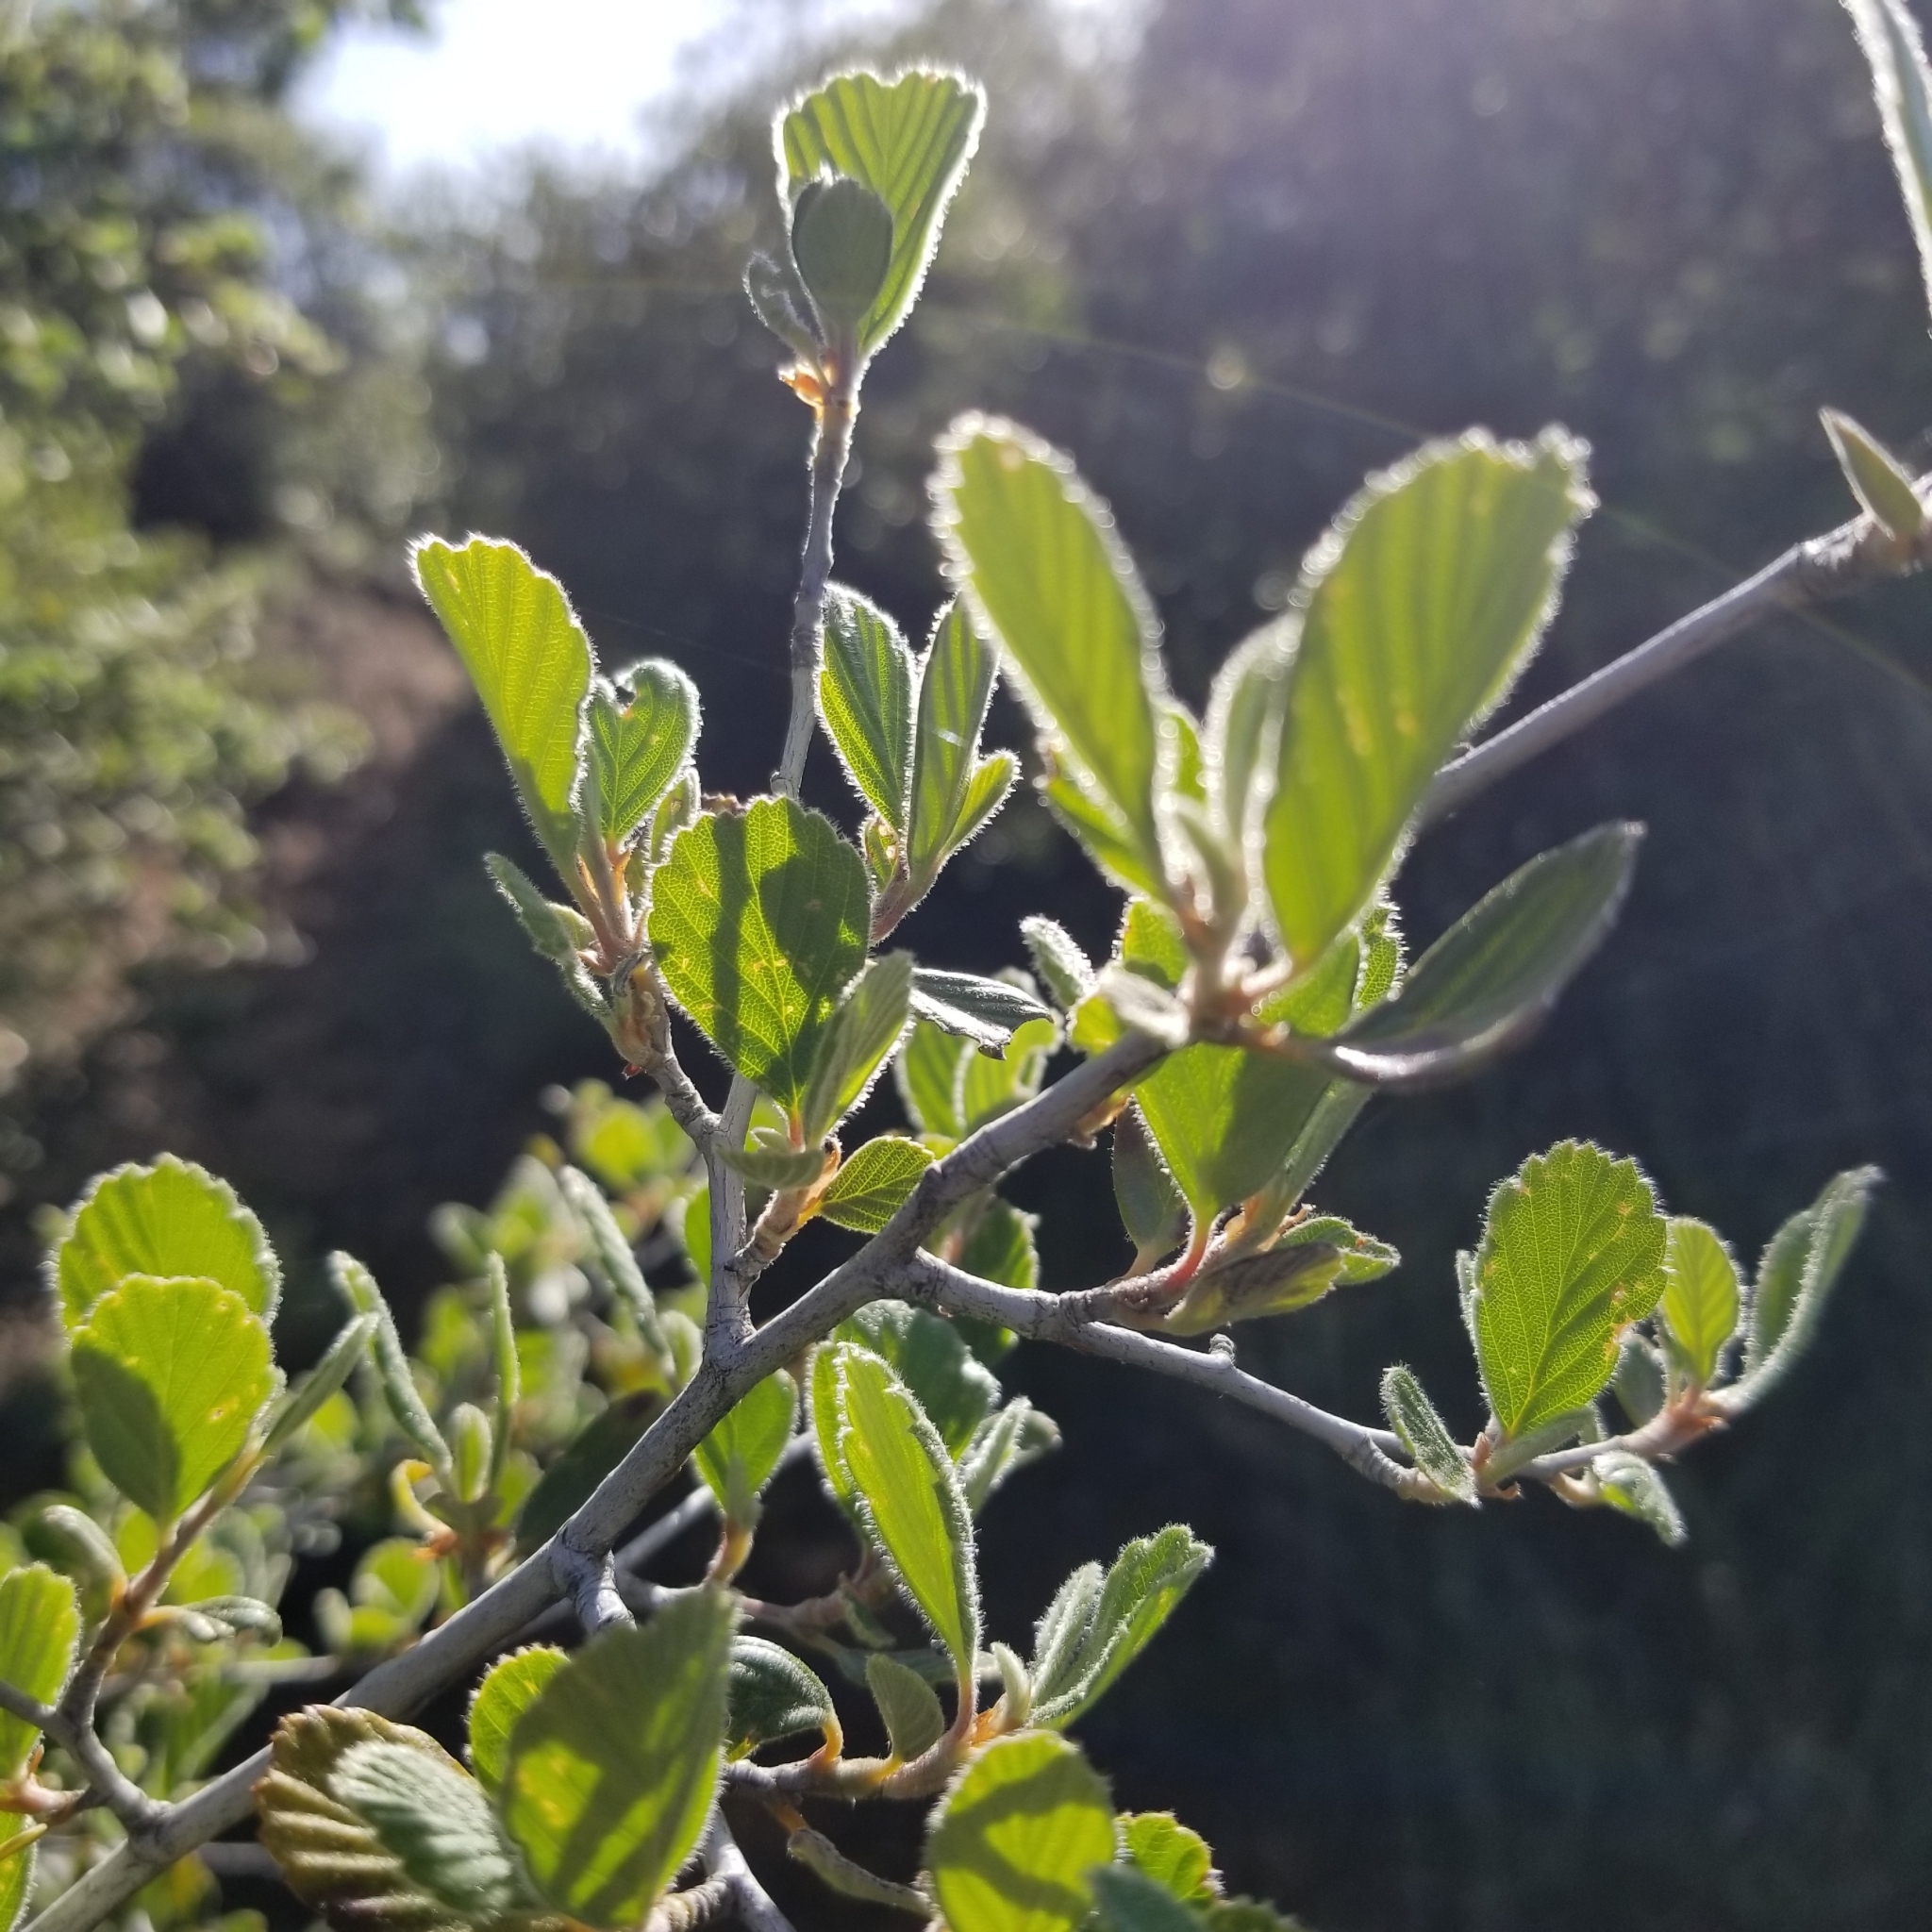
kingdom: Plantae
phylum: Tracheophyta
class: Magnoliopsida
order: Rosales
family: Rosaceae
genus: Cercocarpus
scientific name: Cercocarpus betuloides
